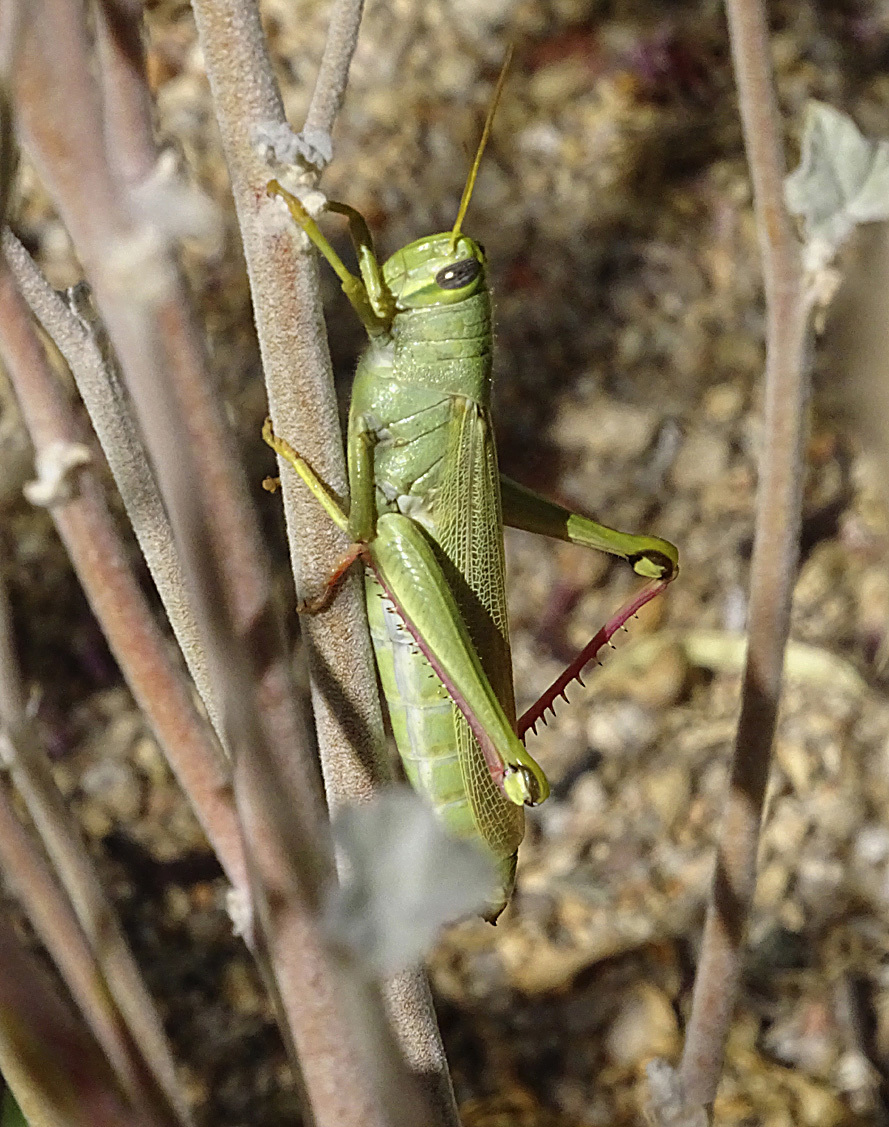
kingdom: Animalia
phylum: Arthropoda
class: Insecta
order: Orthoptera
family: Acrididae
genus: Schistocerca
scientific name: Schistocerca shoshone
